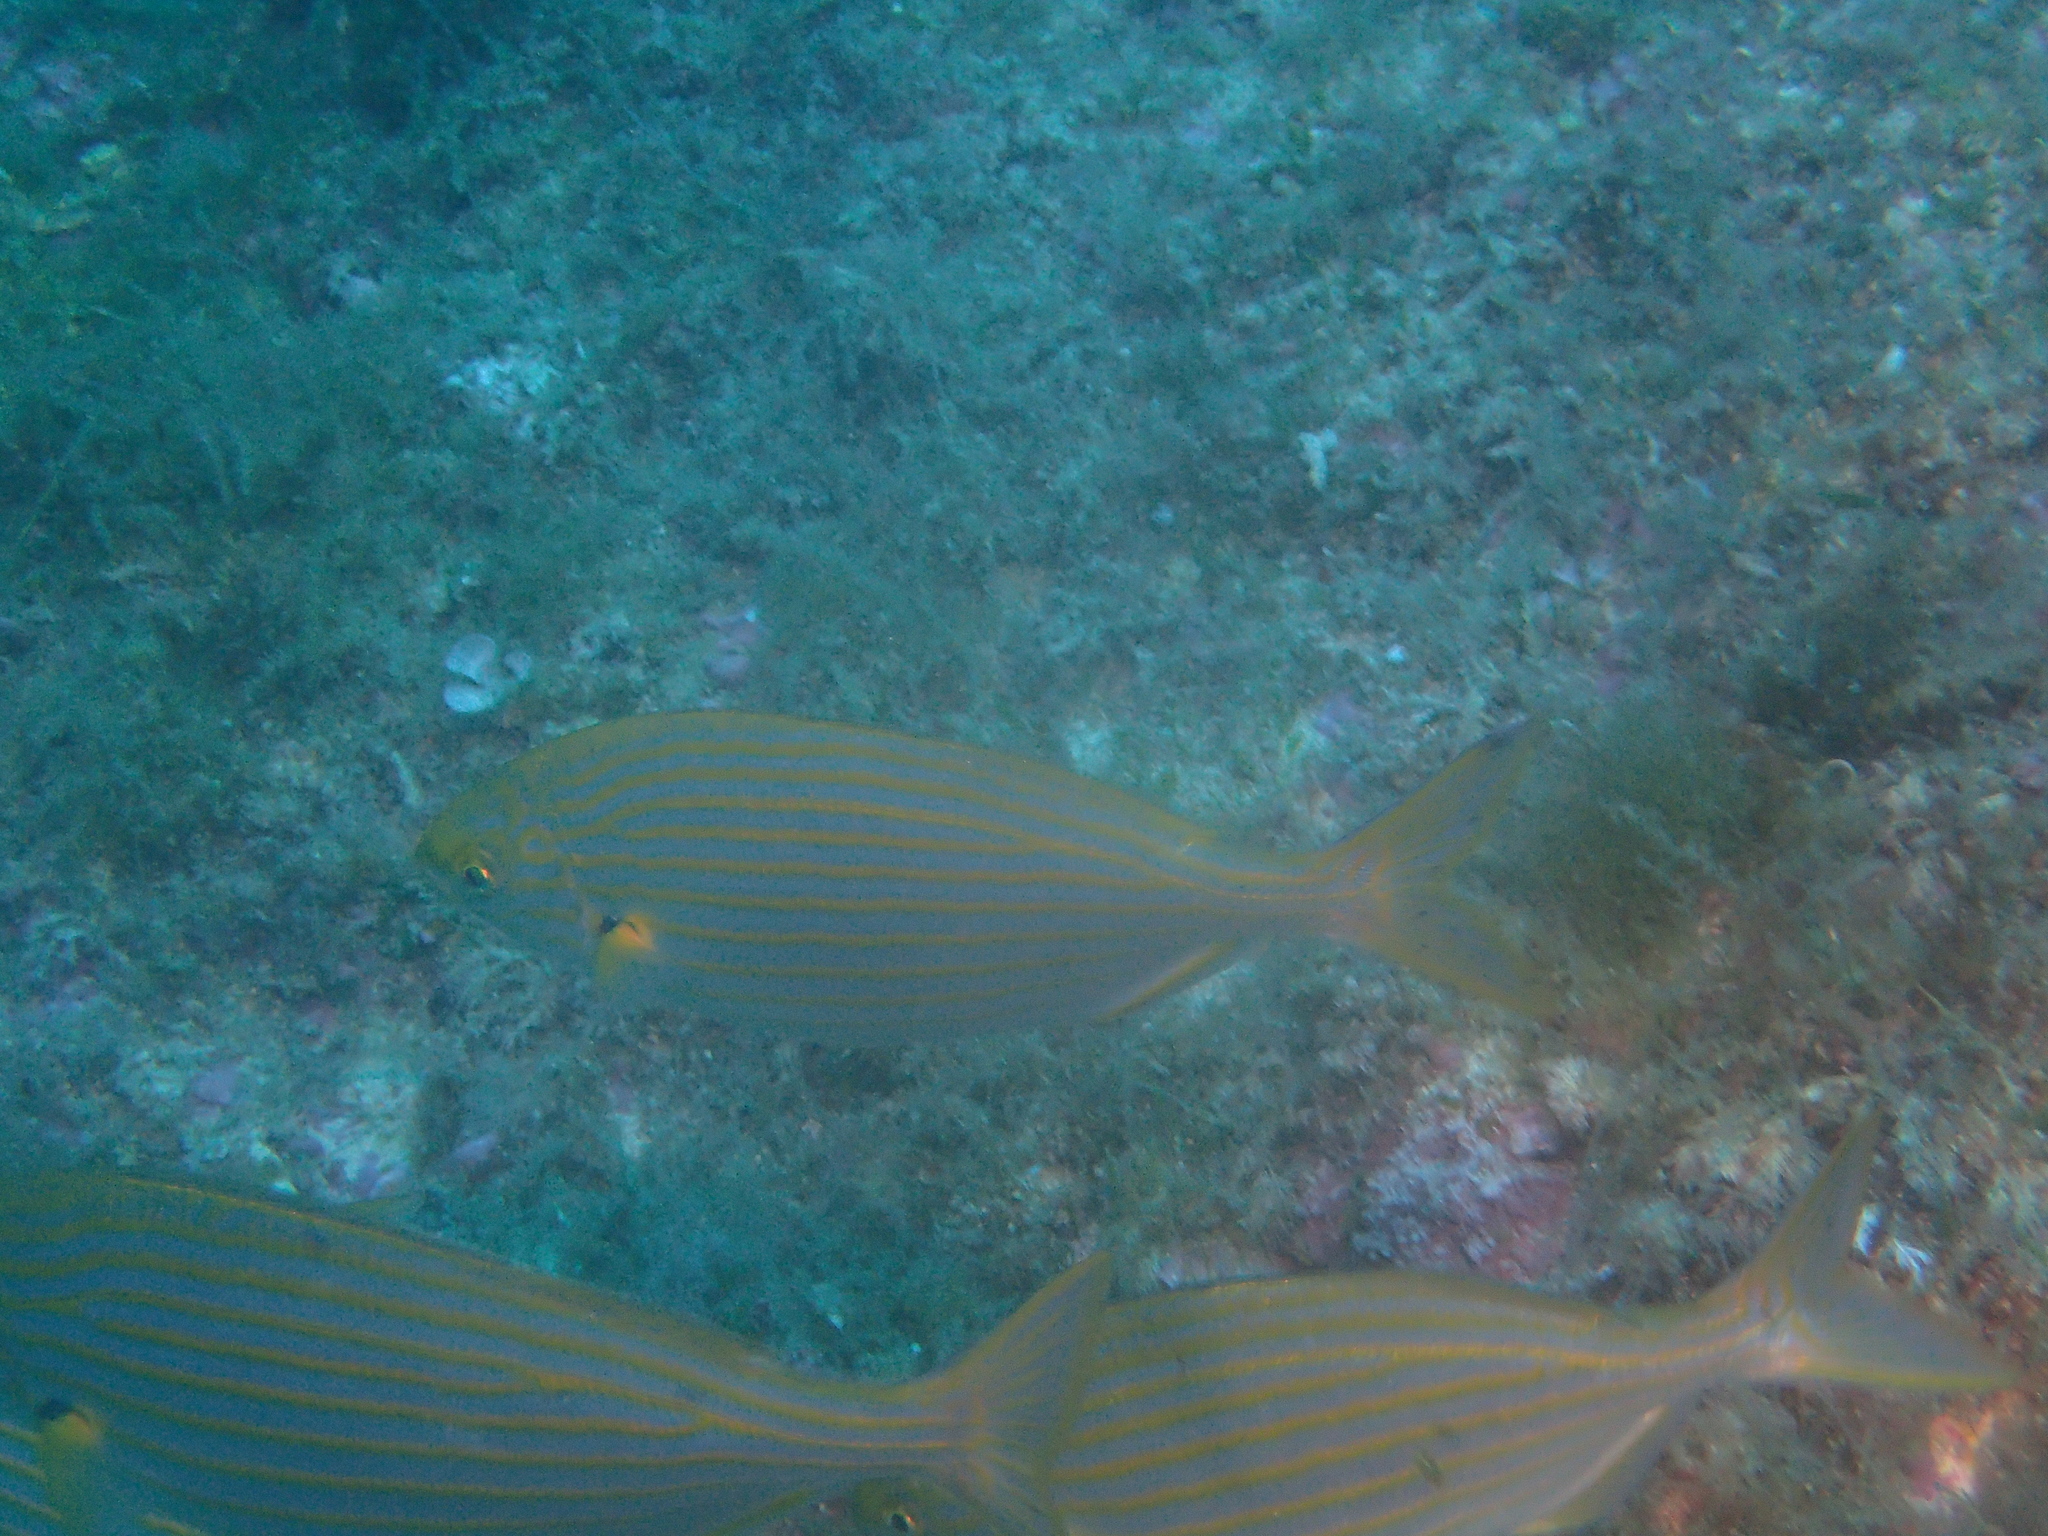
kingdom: Animalia
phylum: Chordata
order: Perciformes
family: Sparidae
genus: Sarpa
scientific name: Sarpa salpa
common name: Salema
